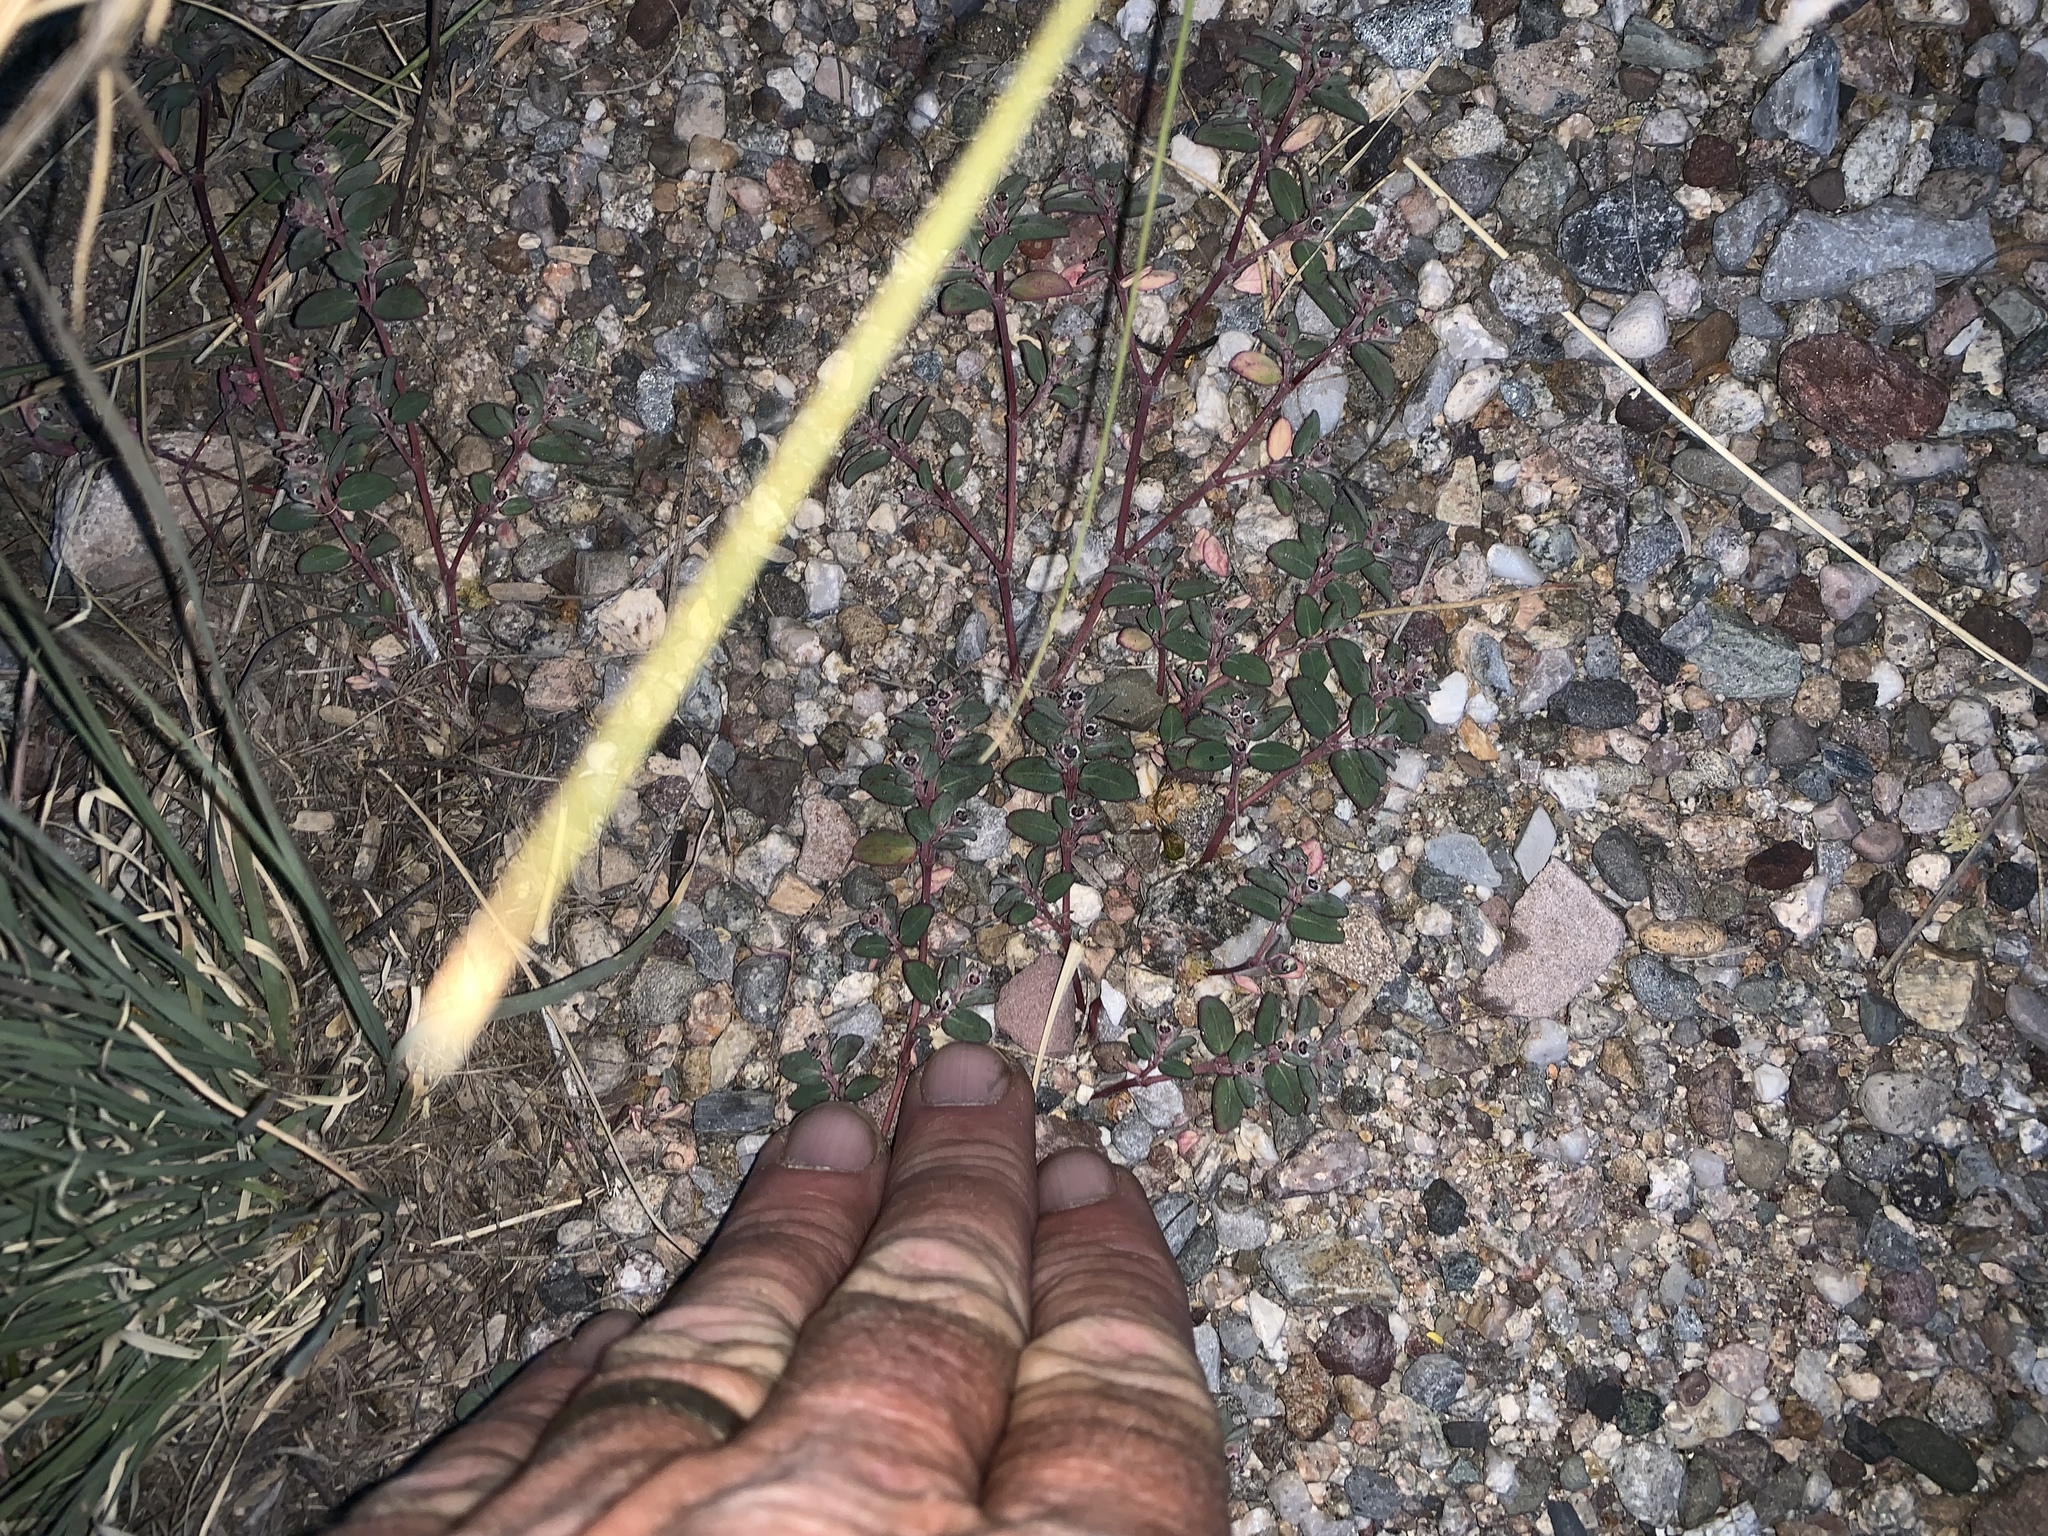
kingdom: Plantae
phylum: Tracheophyta
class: Magnoliopsida
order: Malpighiales
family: Euphorbiaceae
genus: Euphorbia
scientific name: Euphorbia pediculifera
